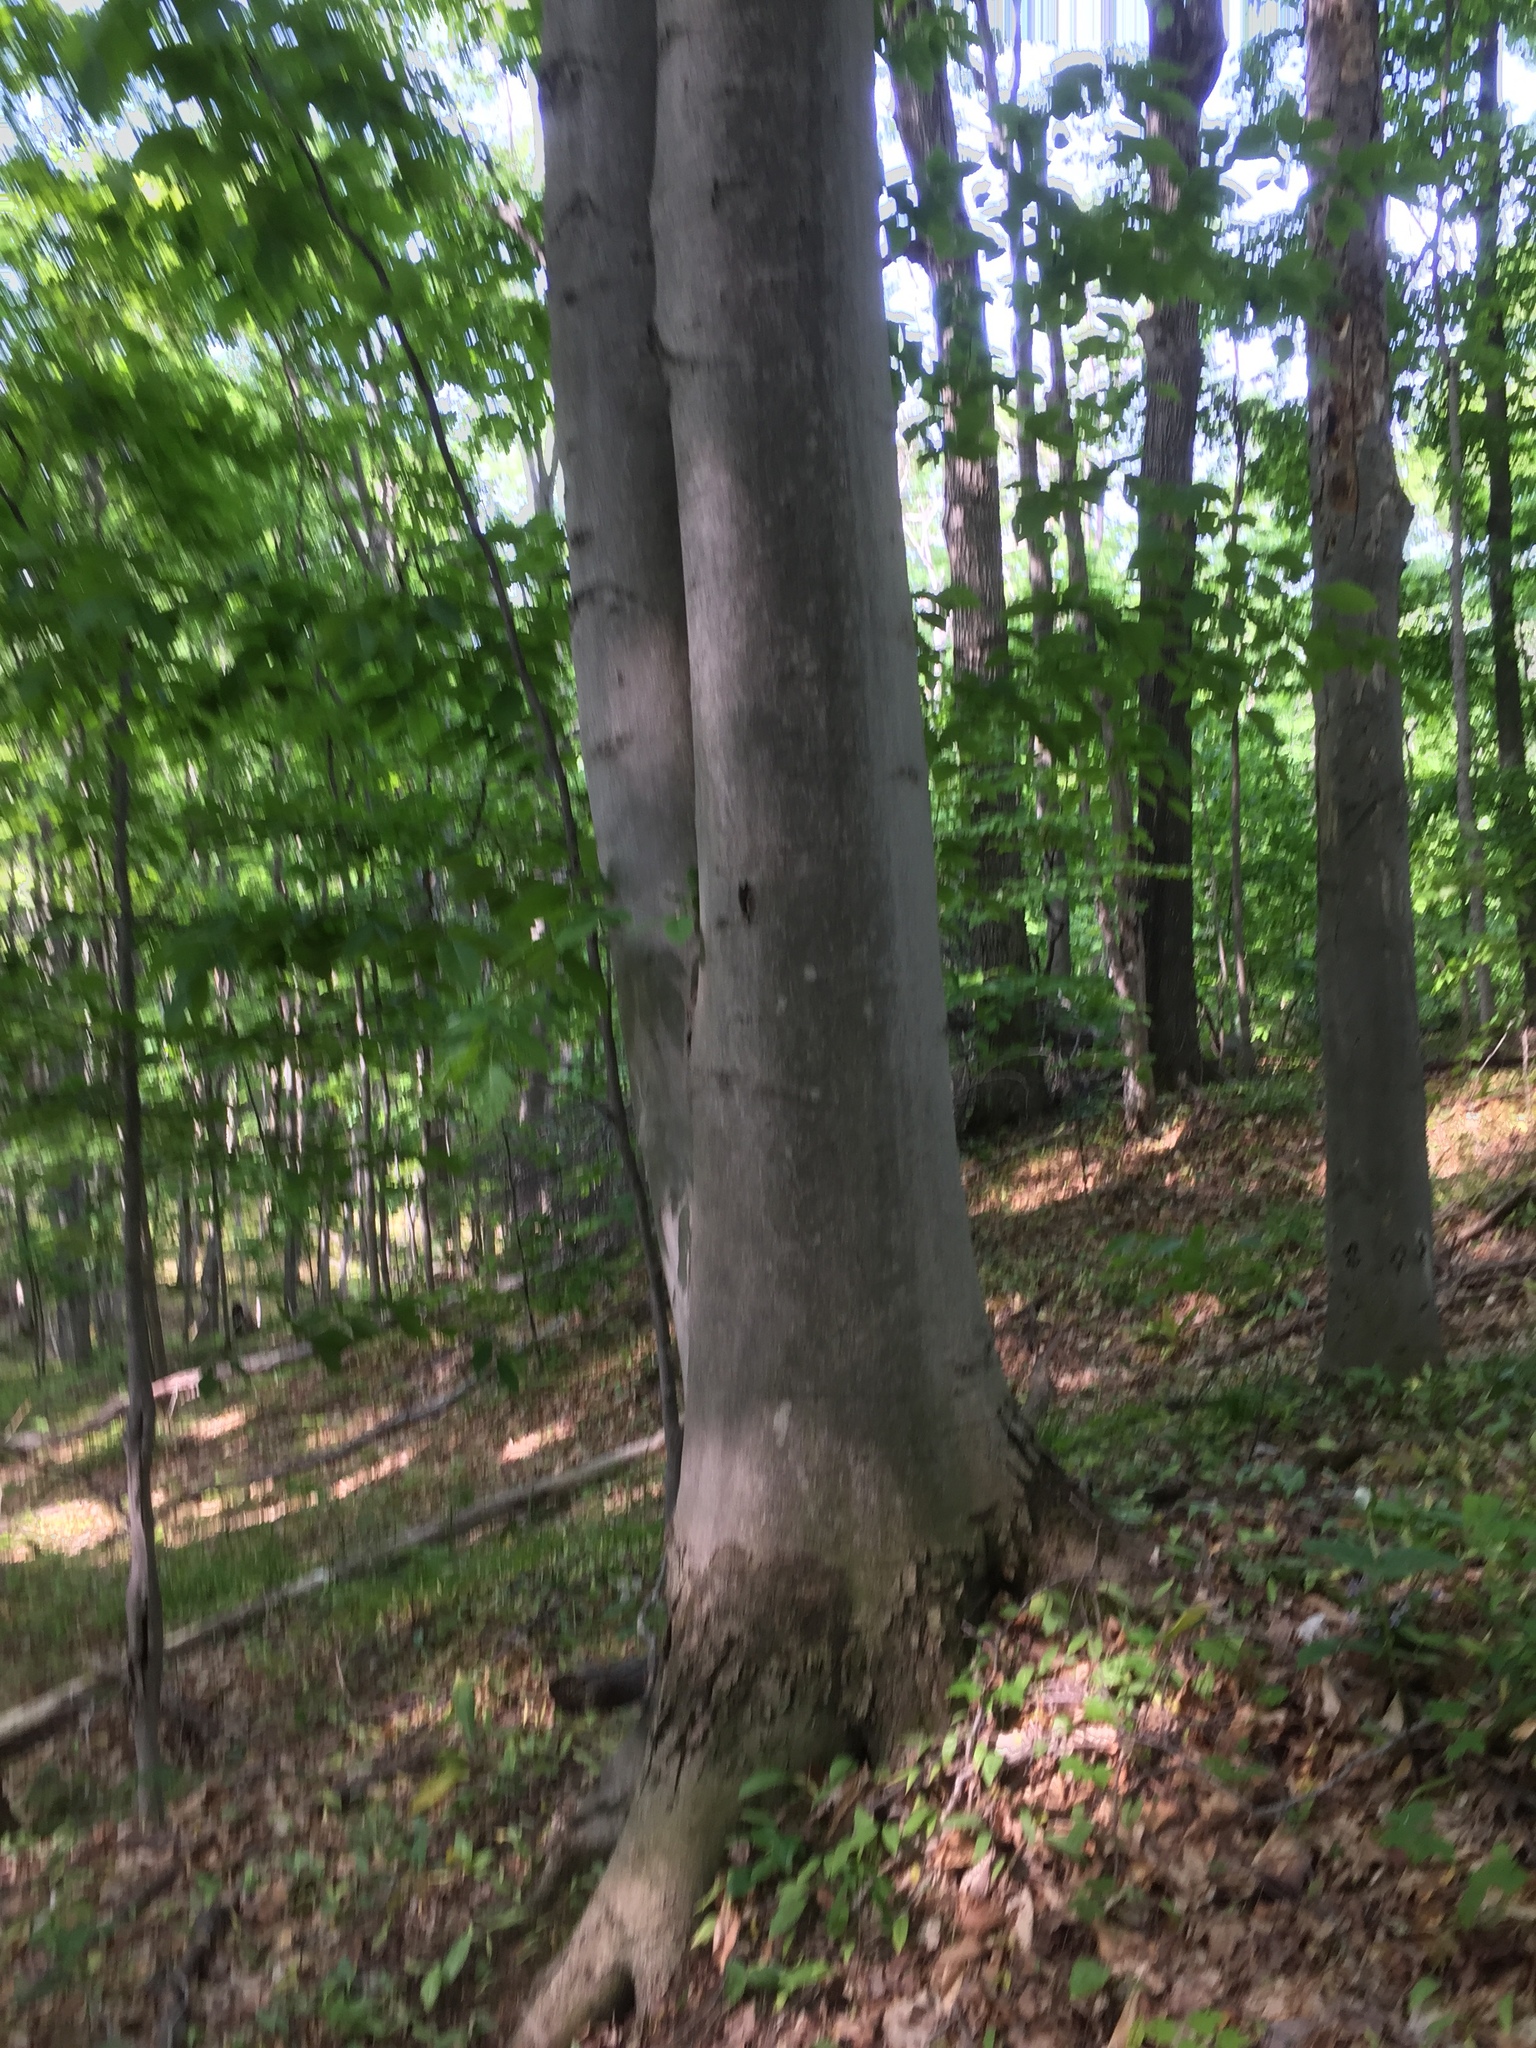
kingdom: Plantae
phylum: Tracheophyta
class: Magnoliopsida
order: Fagales
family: Fagaceae
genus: Fagus
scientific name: Fagus grandifolia
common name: American beech
